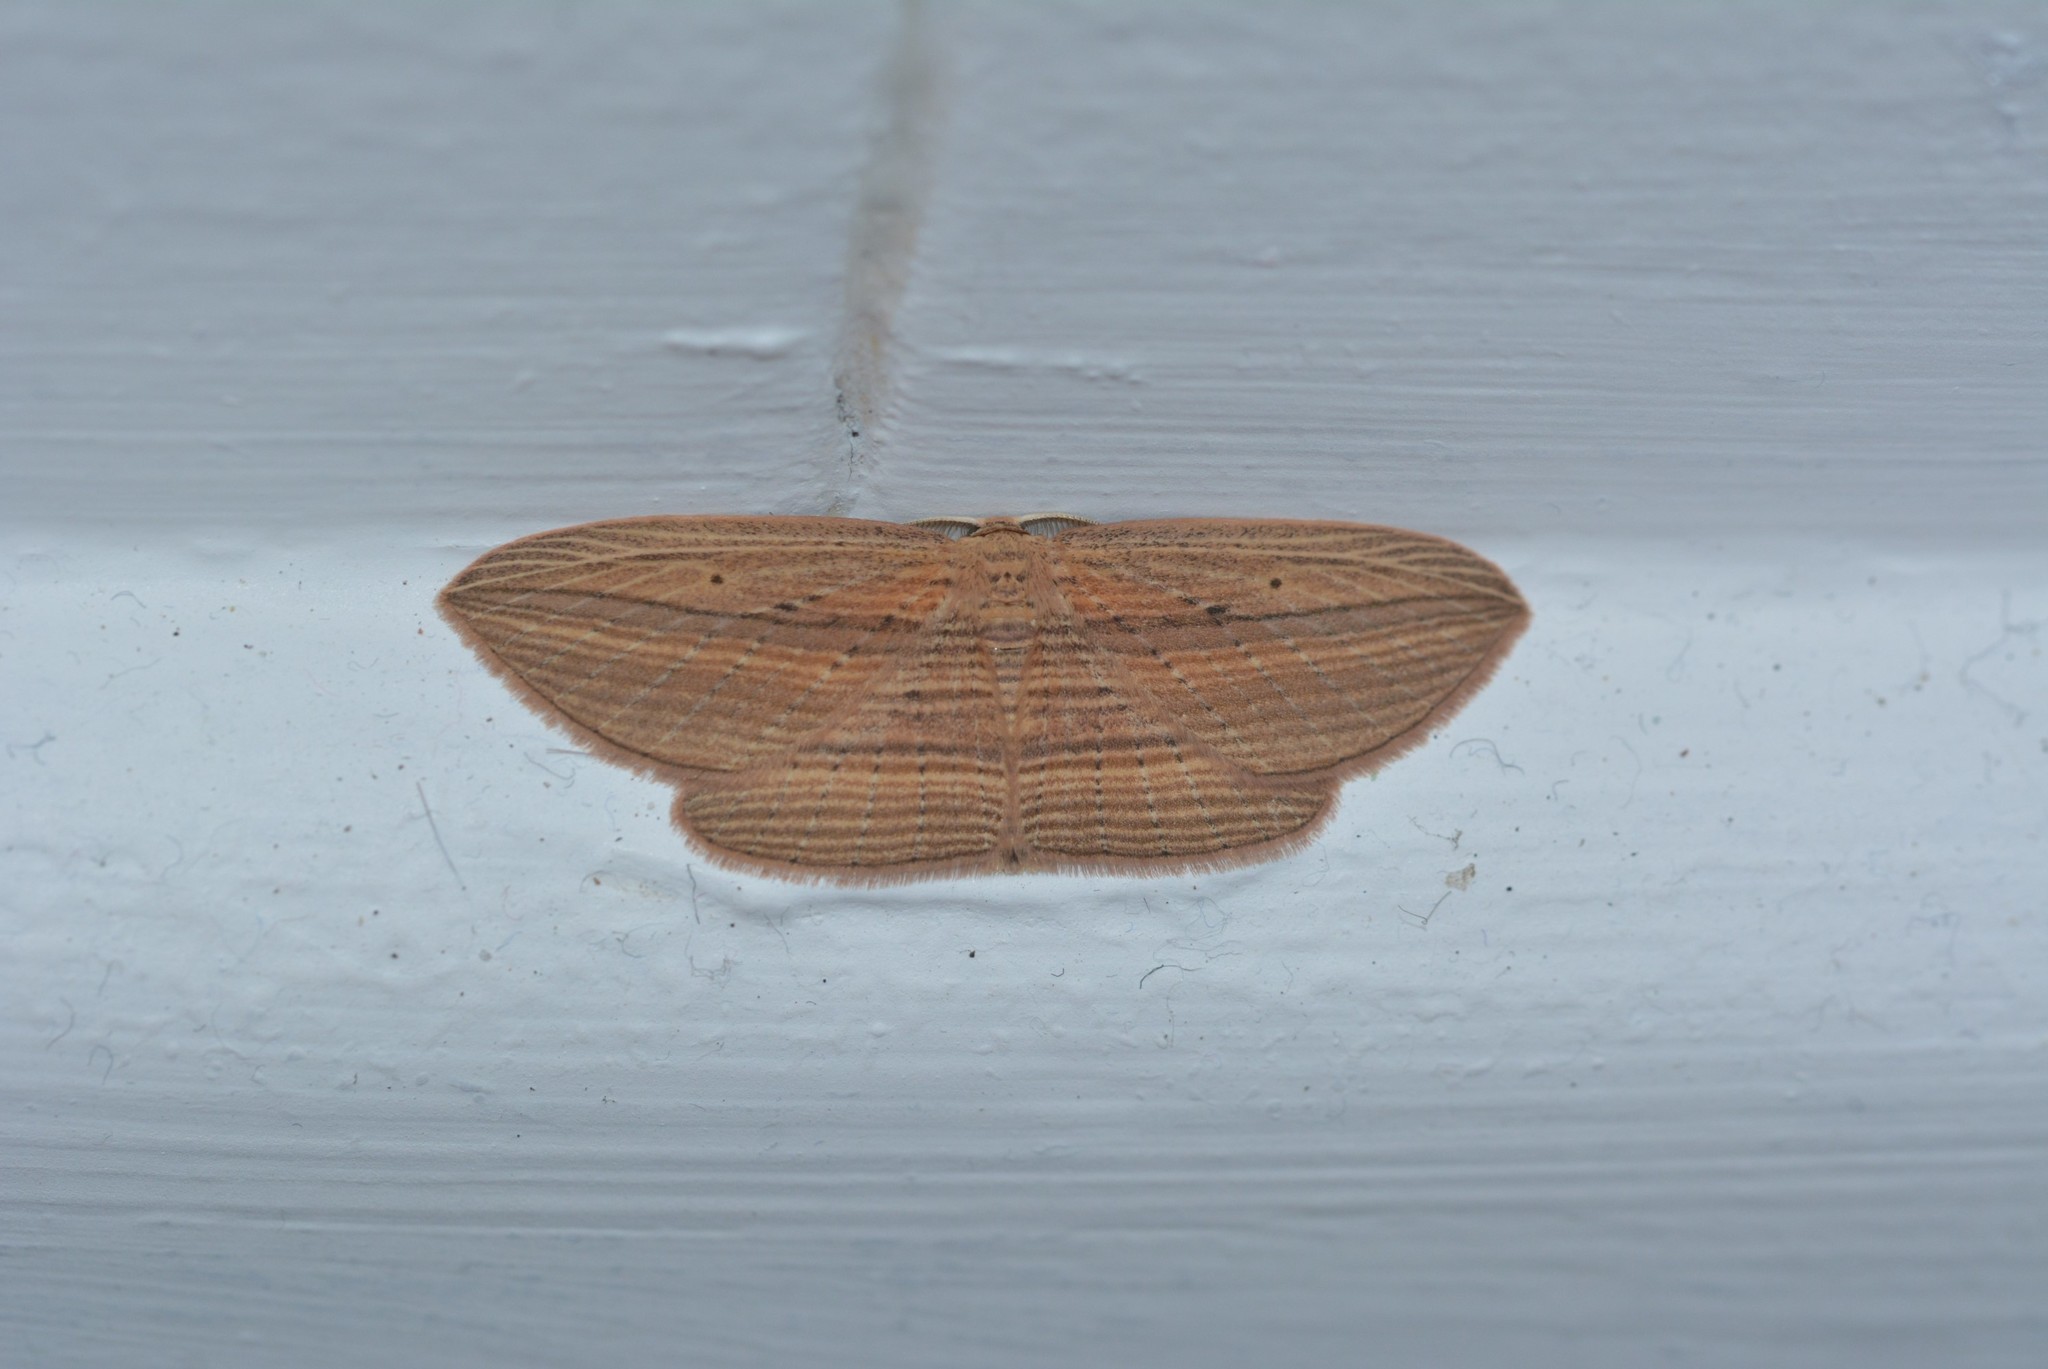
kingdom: Animalia
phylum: Arthropoda
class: Insecta
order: Lepidoptera
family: Geometridae
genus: Epiphryne
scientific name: Epiphryne verriculata
